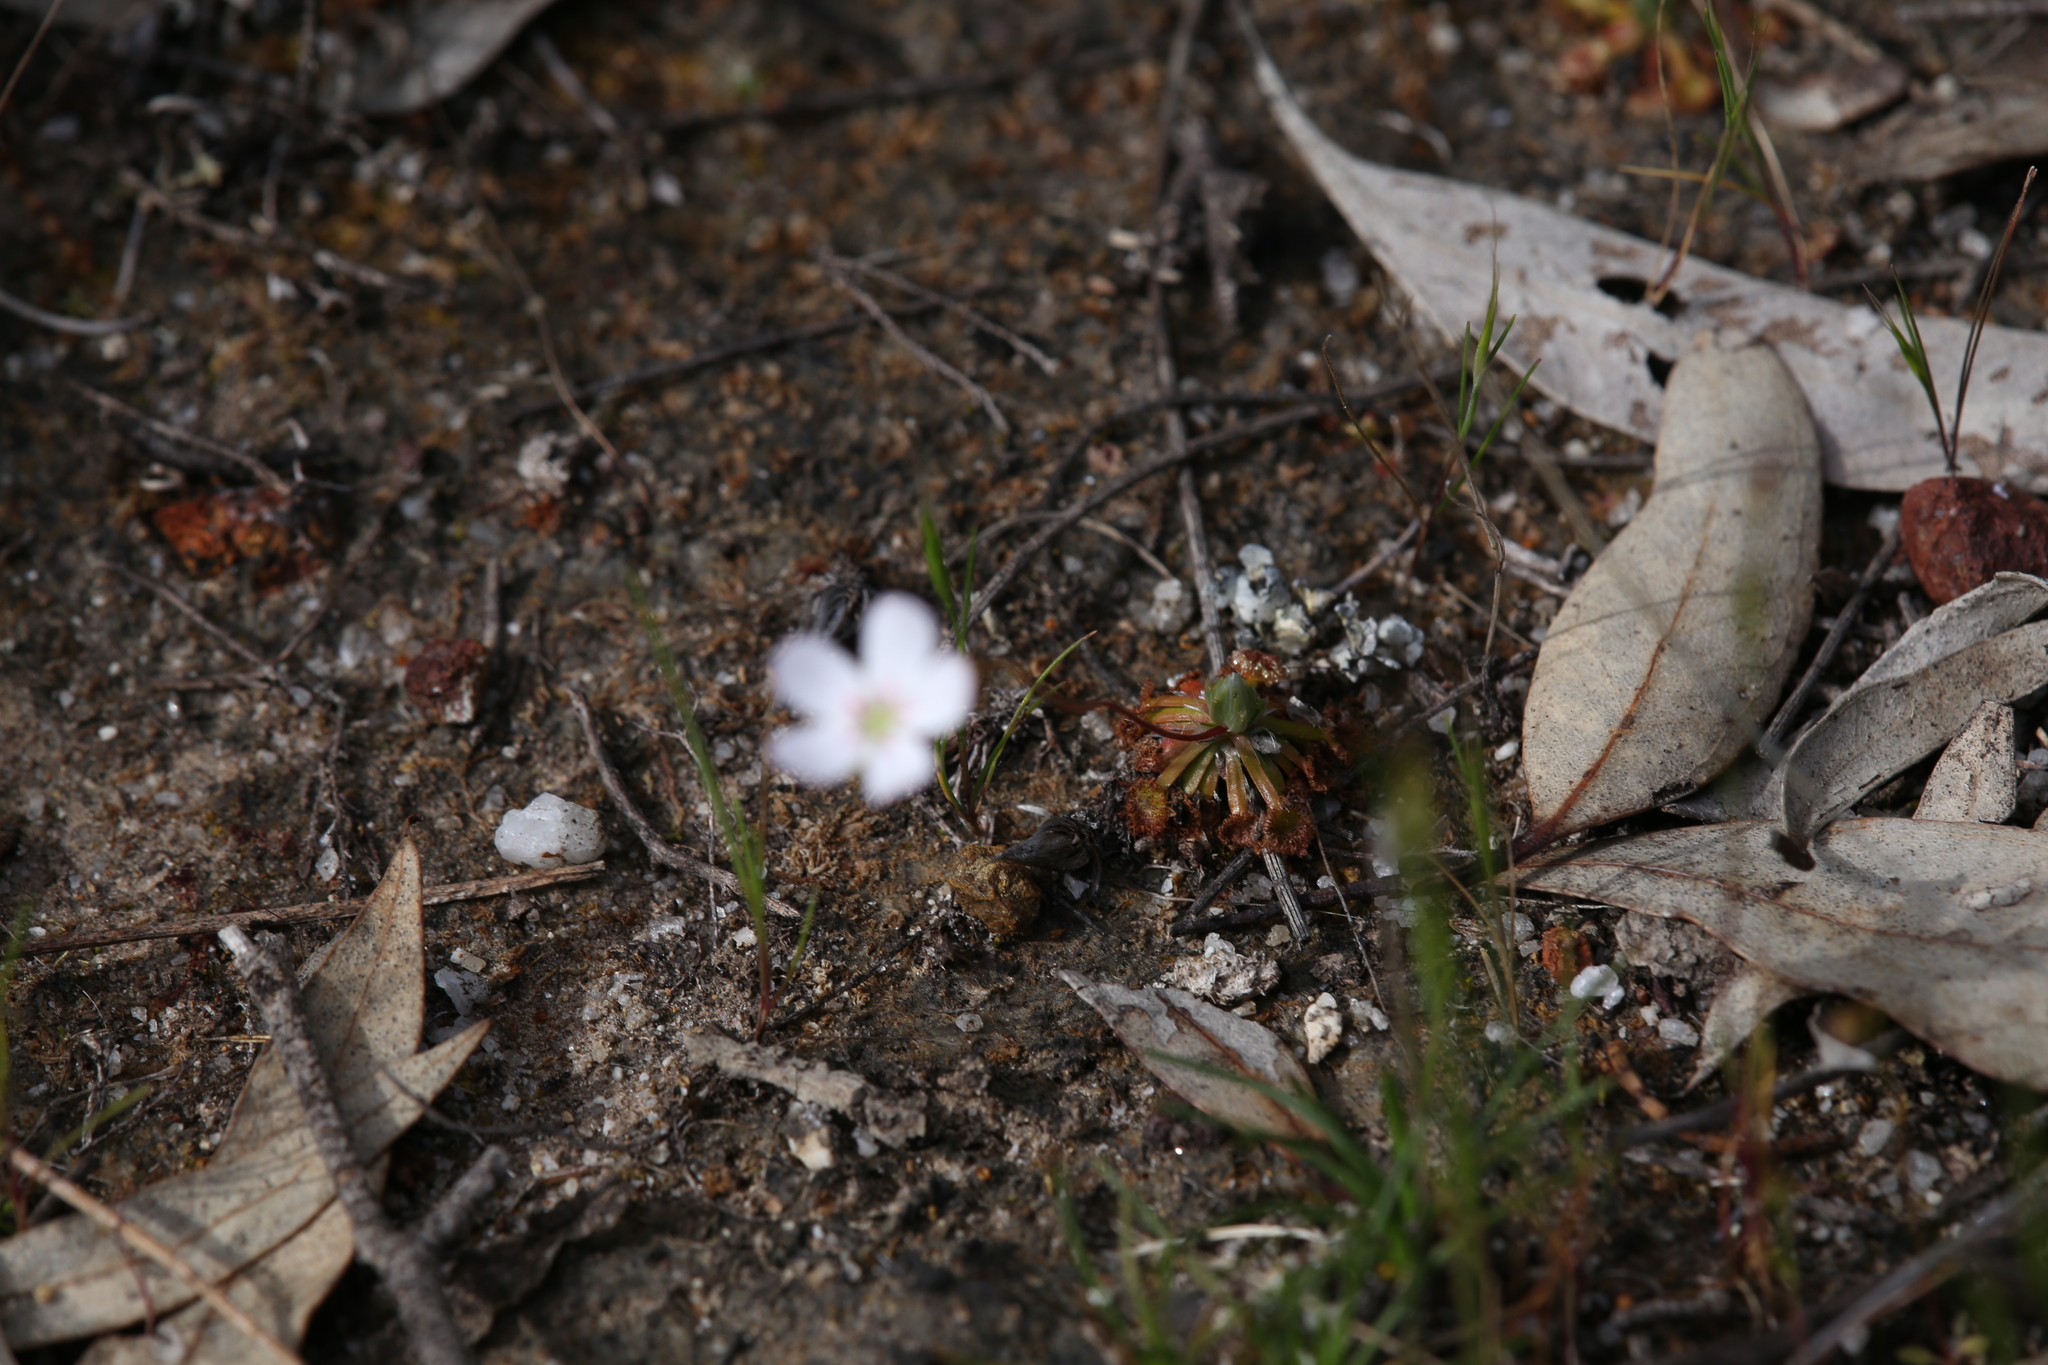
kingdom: Plantae
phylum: Tracheophyta
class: Magnoliopsida
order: Caryophyllales
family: Droseraceae
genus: Drosera
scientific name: Drosera androsacea
